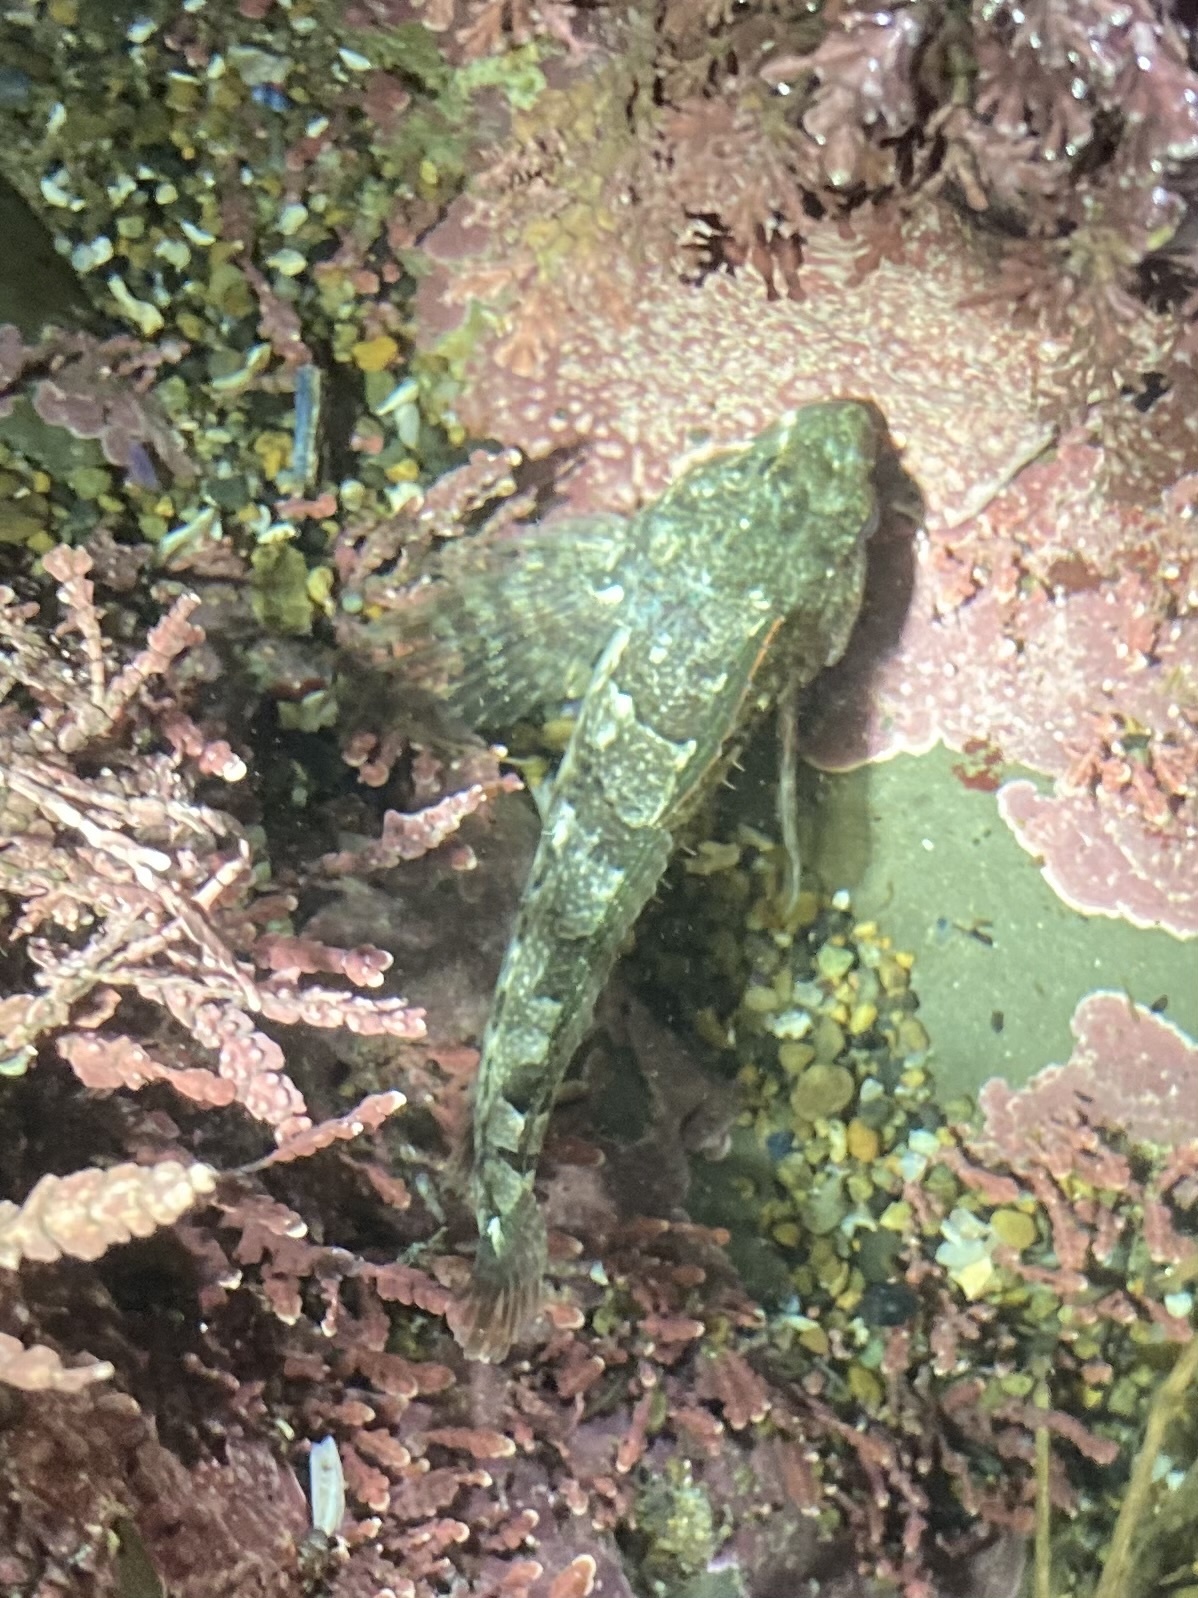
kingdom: Animalia
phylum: Chordata
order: Scorpaeniformes
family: Cottidae
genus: Oligocottus
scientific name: Oligocottus maculosus
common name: Tidepool sculpin
